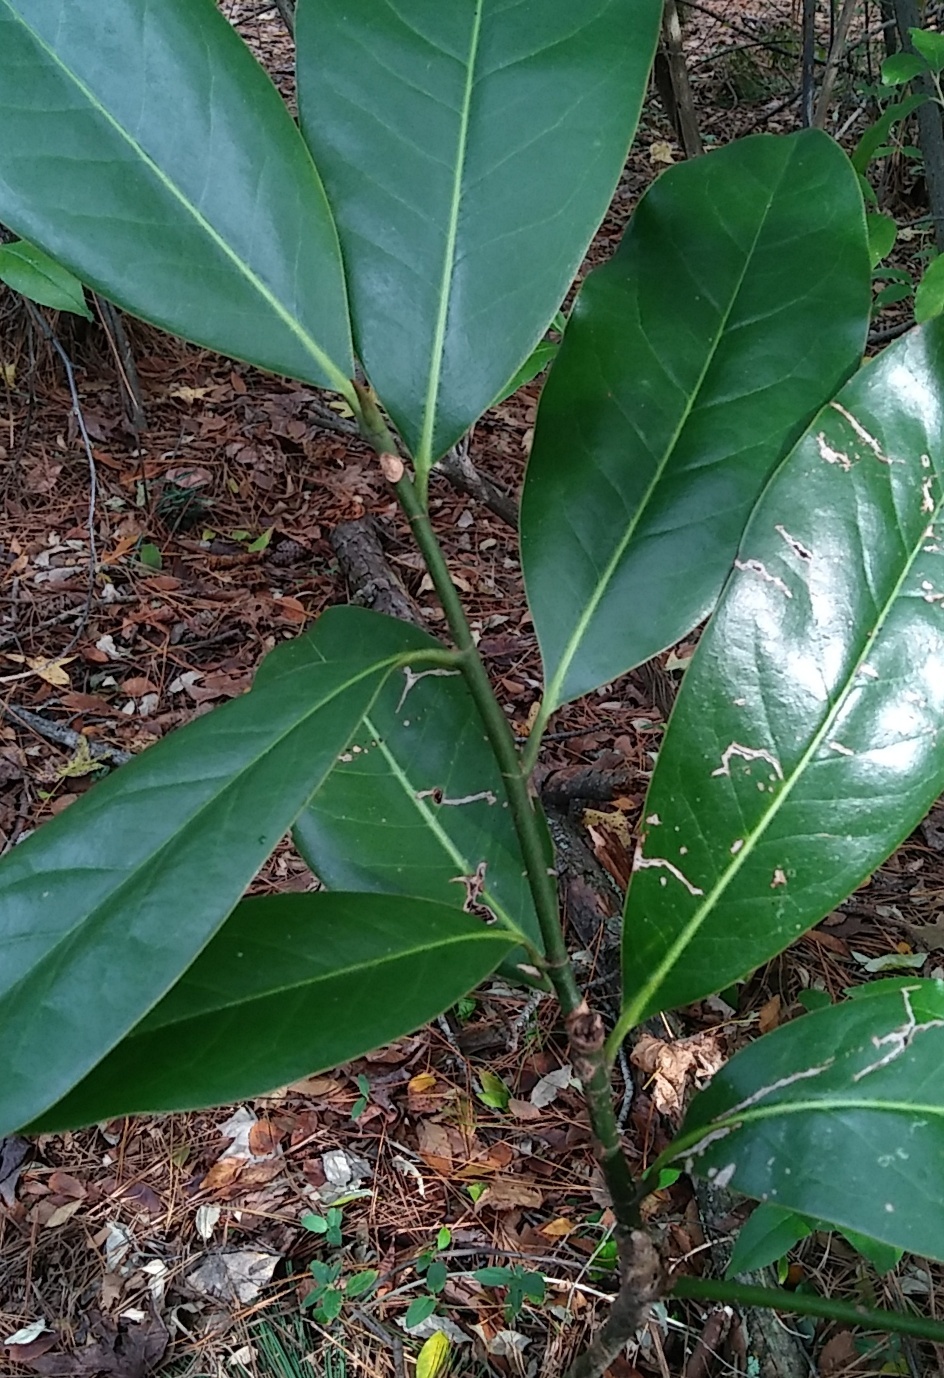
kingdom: Plantae
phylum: Tracheophyta
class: Magnoliopsida
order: Magnoliales
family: Magnoliaceae
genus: Magnolia
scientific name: Magnolia grandiflora
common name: Southern magnolia
